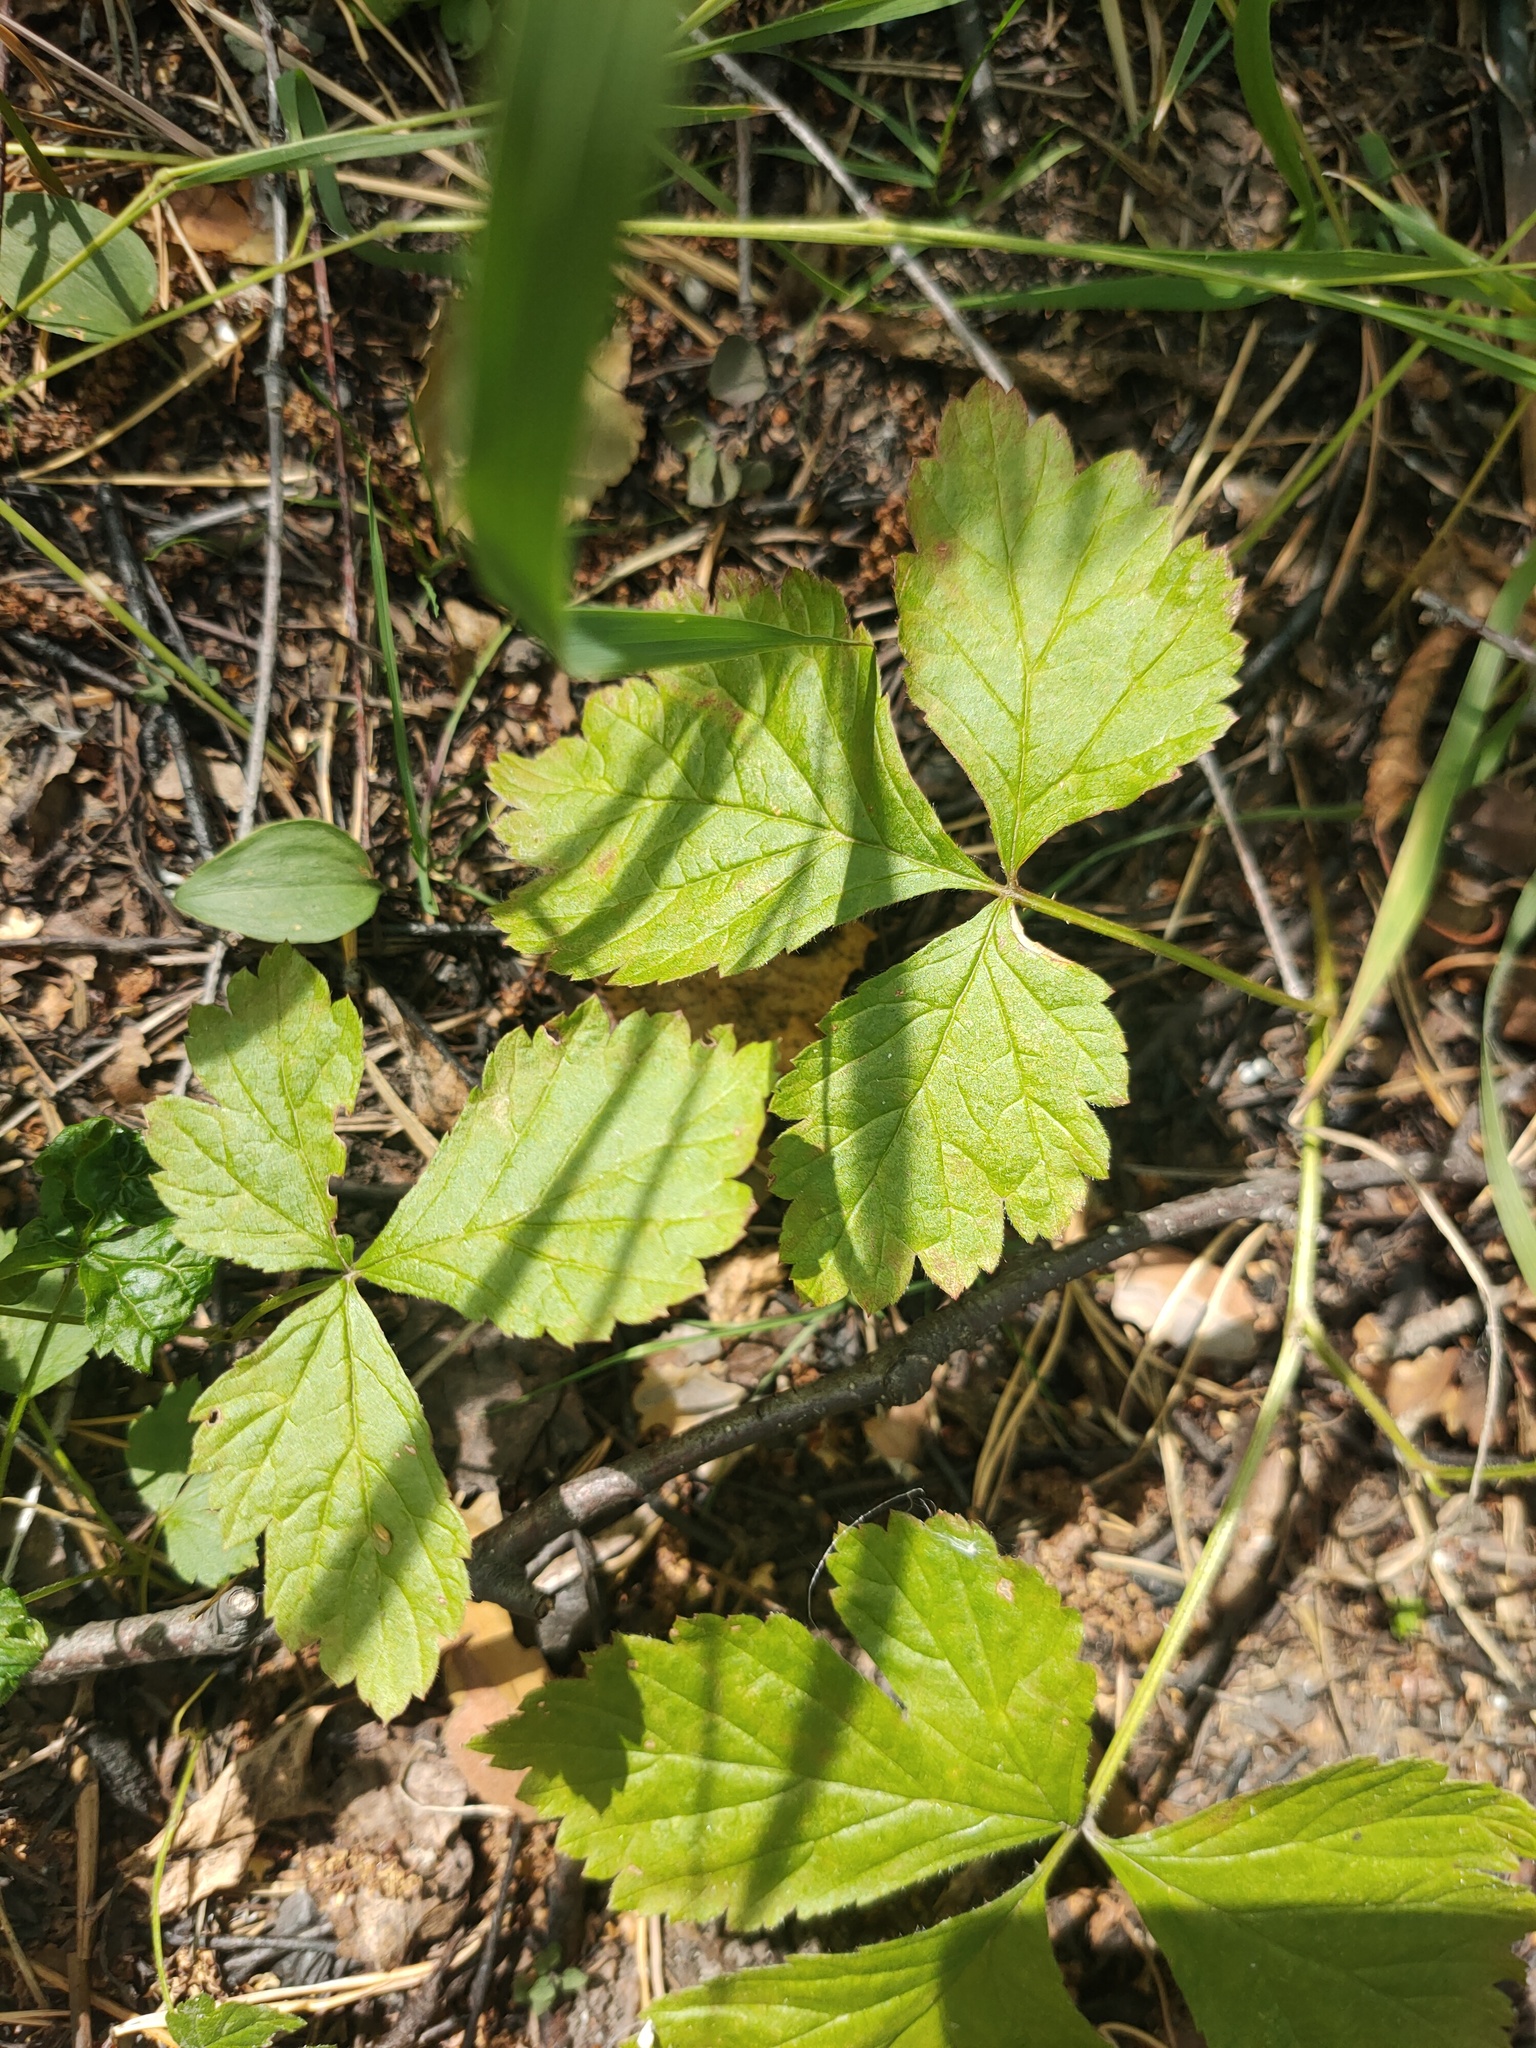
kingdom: Plantae
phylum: Tracheophyta
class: Magnoliopsida
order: Rosales
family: Rosaceae
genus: Rubus
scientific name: Rubus saxatilis
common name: Stone bramble
